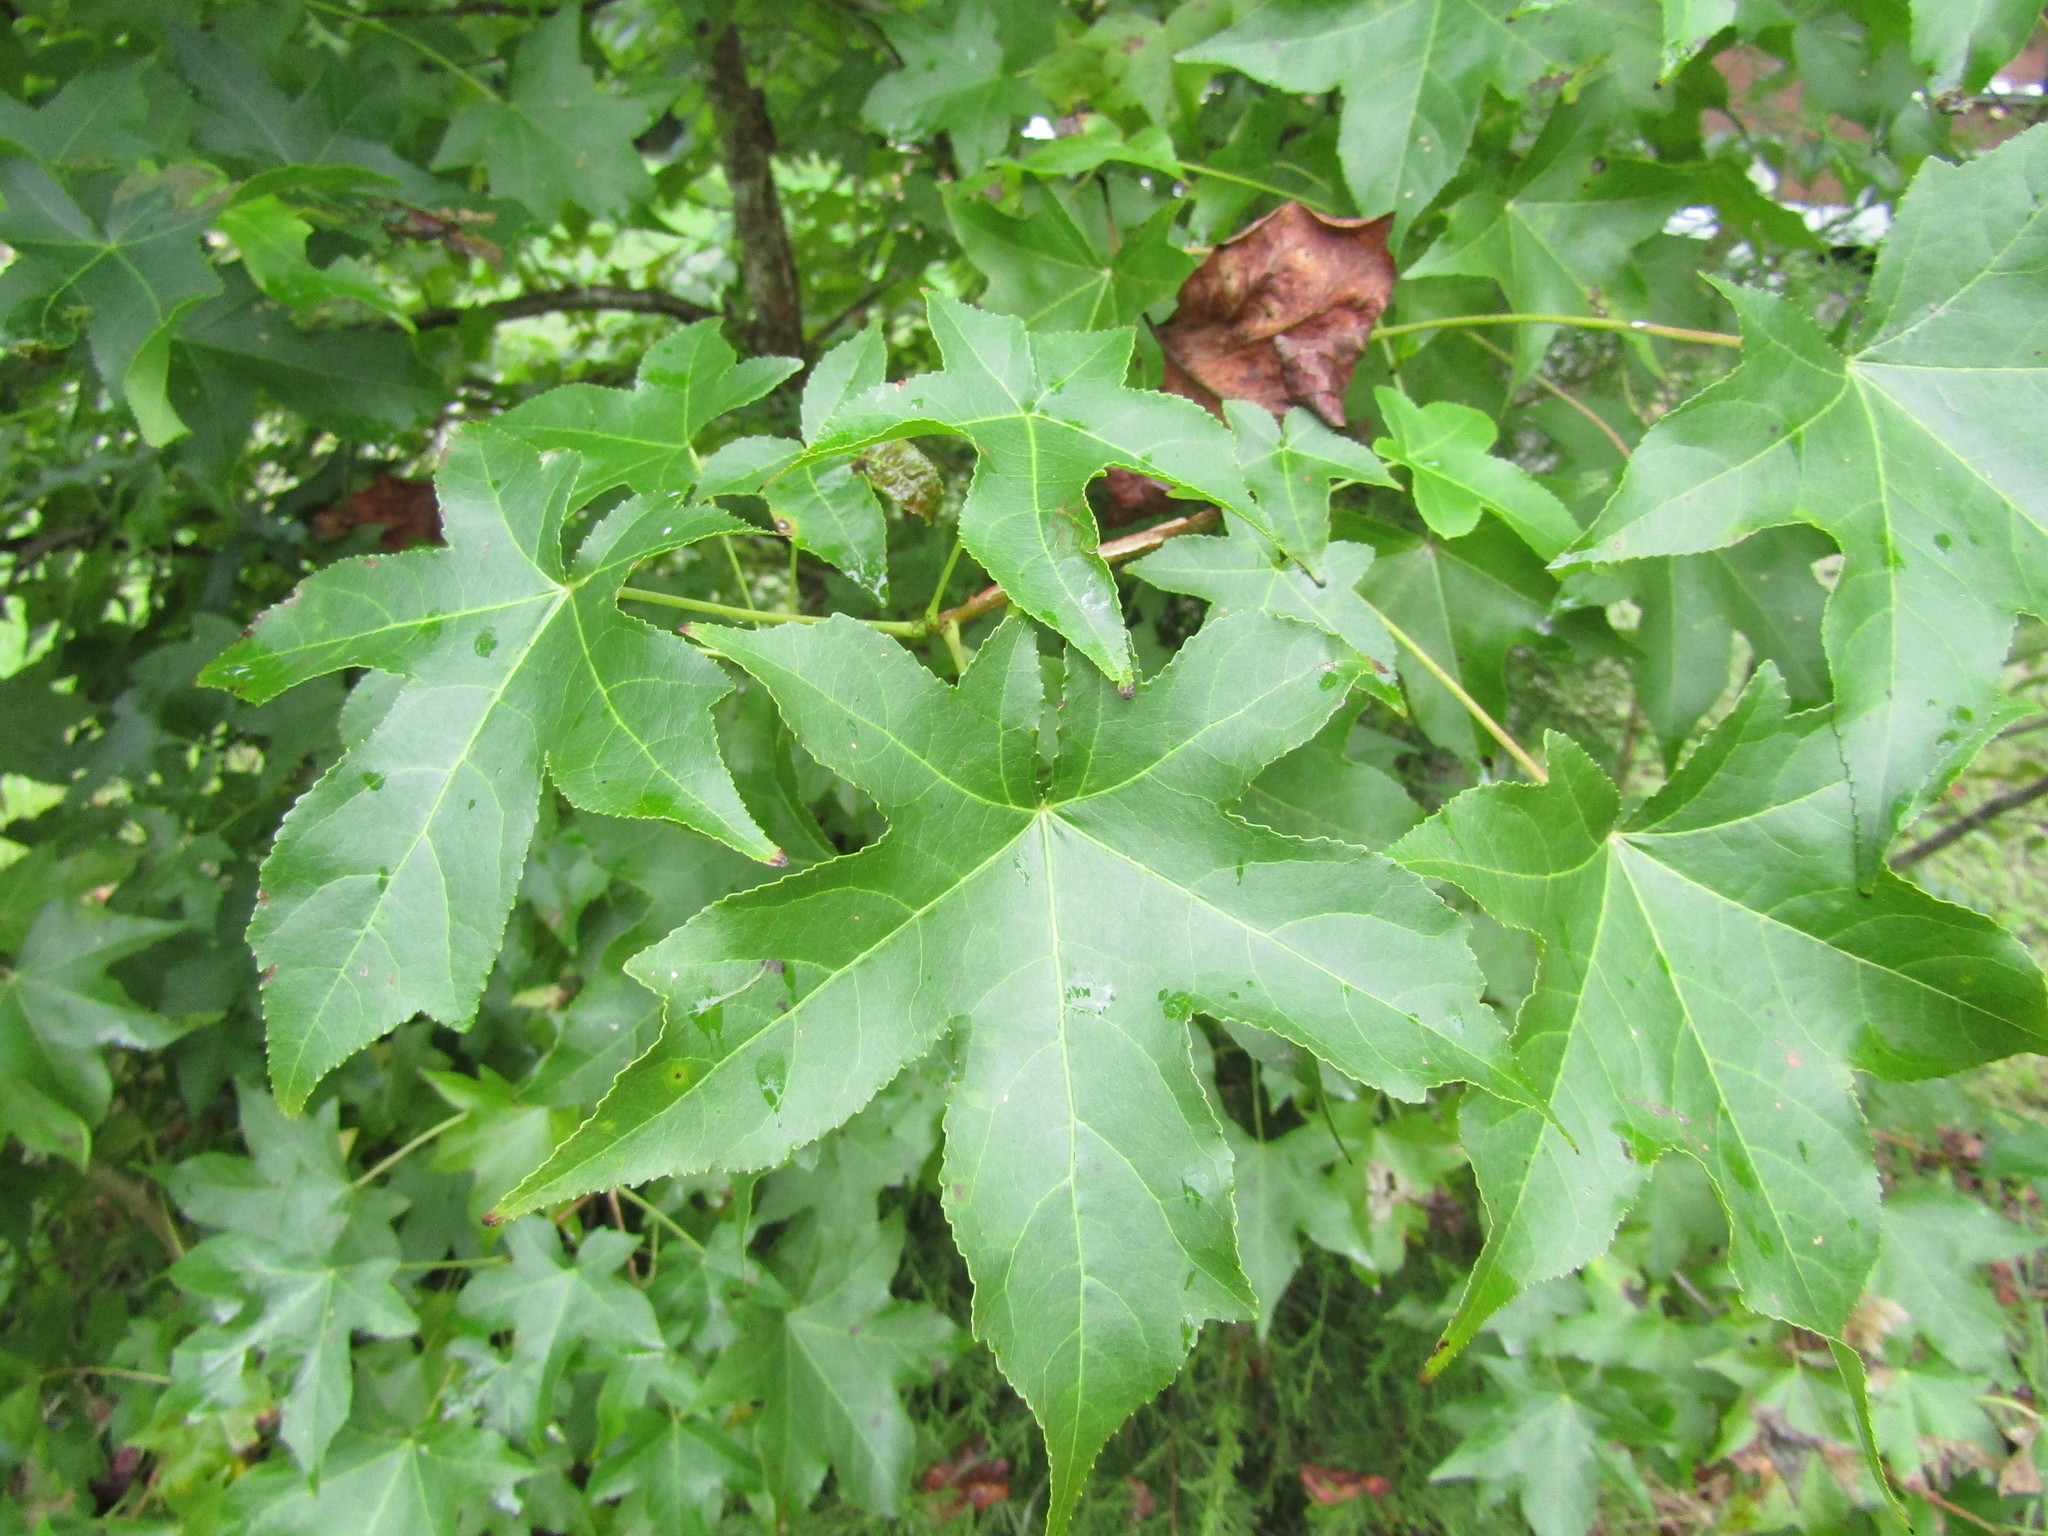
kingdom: Plantae
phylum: Tracheophyta
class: Magnoliopsida
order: Saxifragales
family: Altingiaceae
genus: Liquidambar
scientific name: Liquidambar styraciflua
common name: Sweet gum
